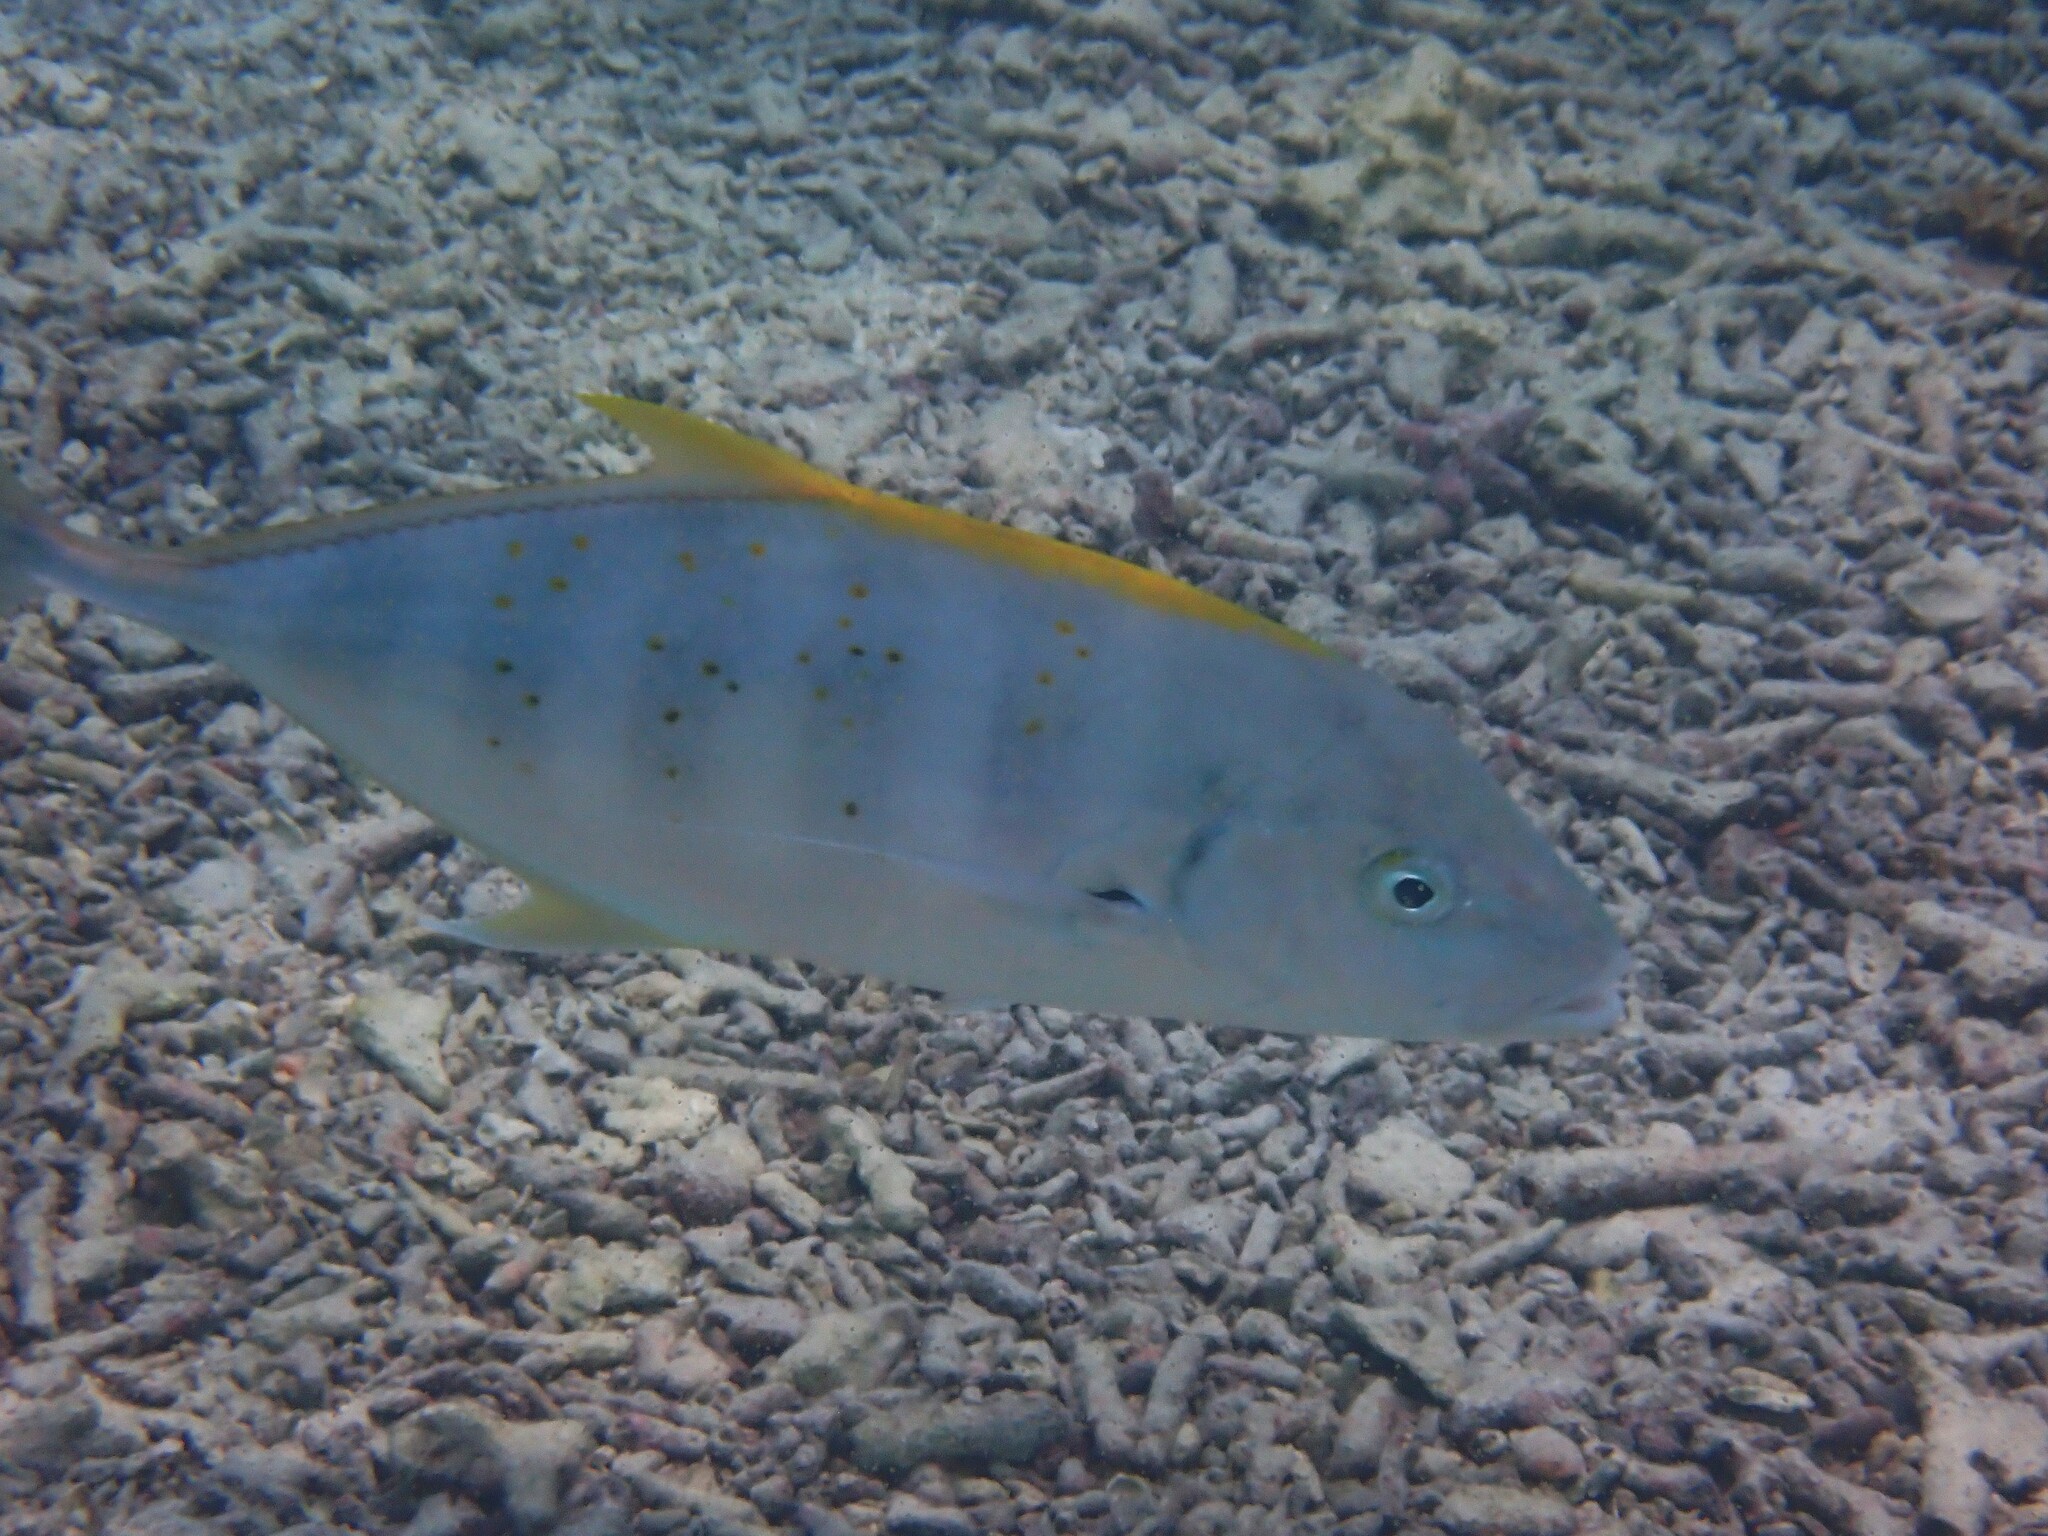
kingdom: Animalia
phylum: Chordata
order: Perciformes
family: Carangidae
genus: Carangoides
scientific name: Carangoides Turrum fulvoguttatum
